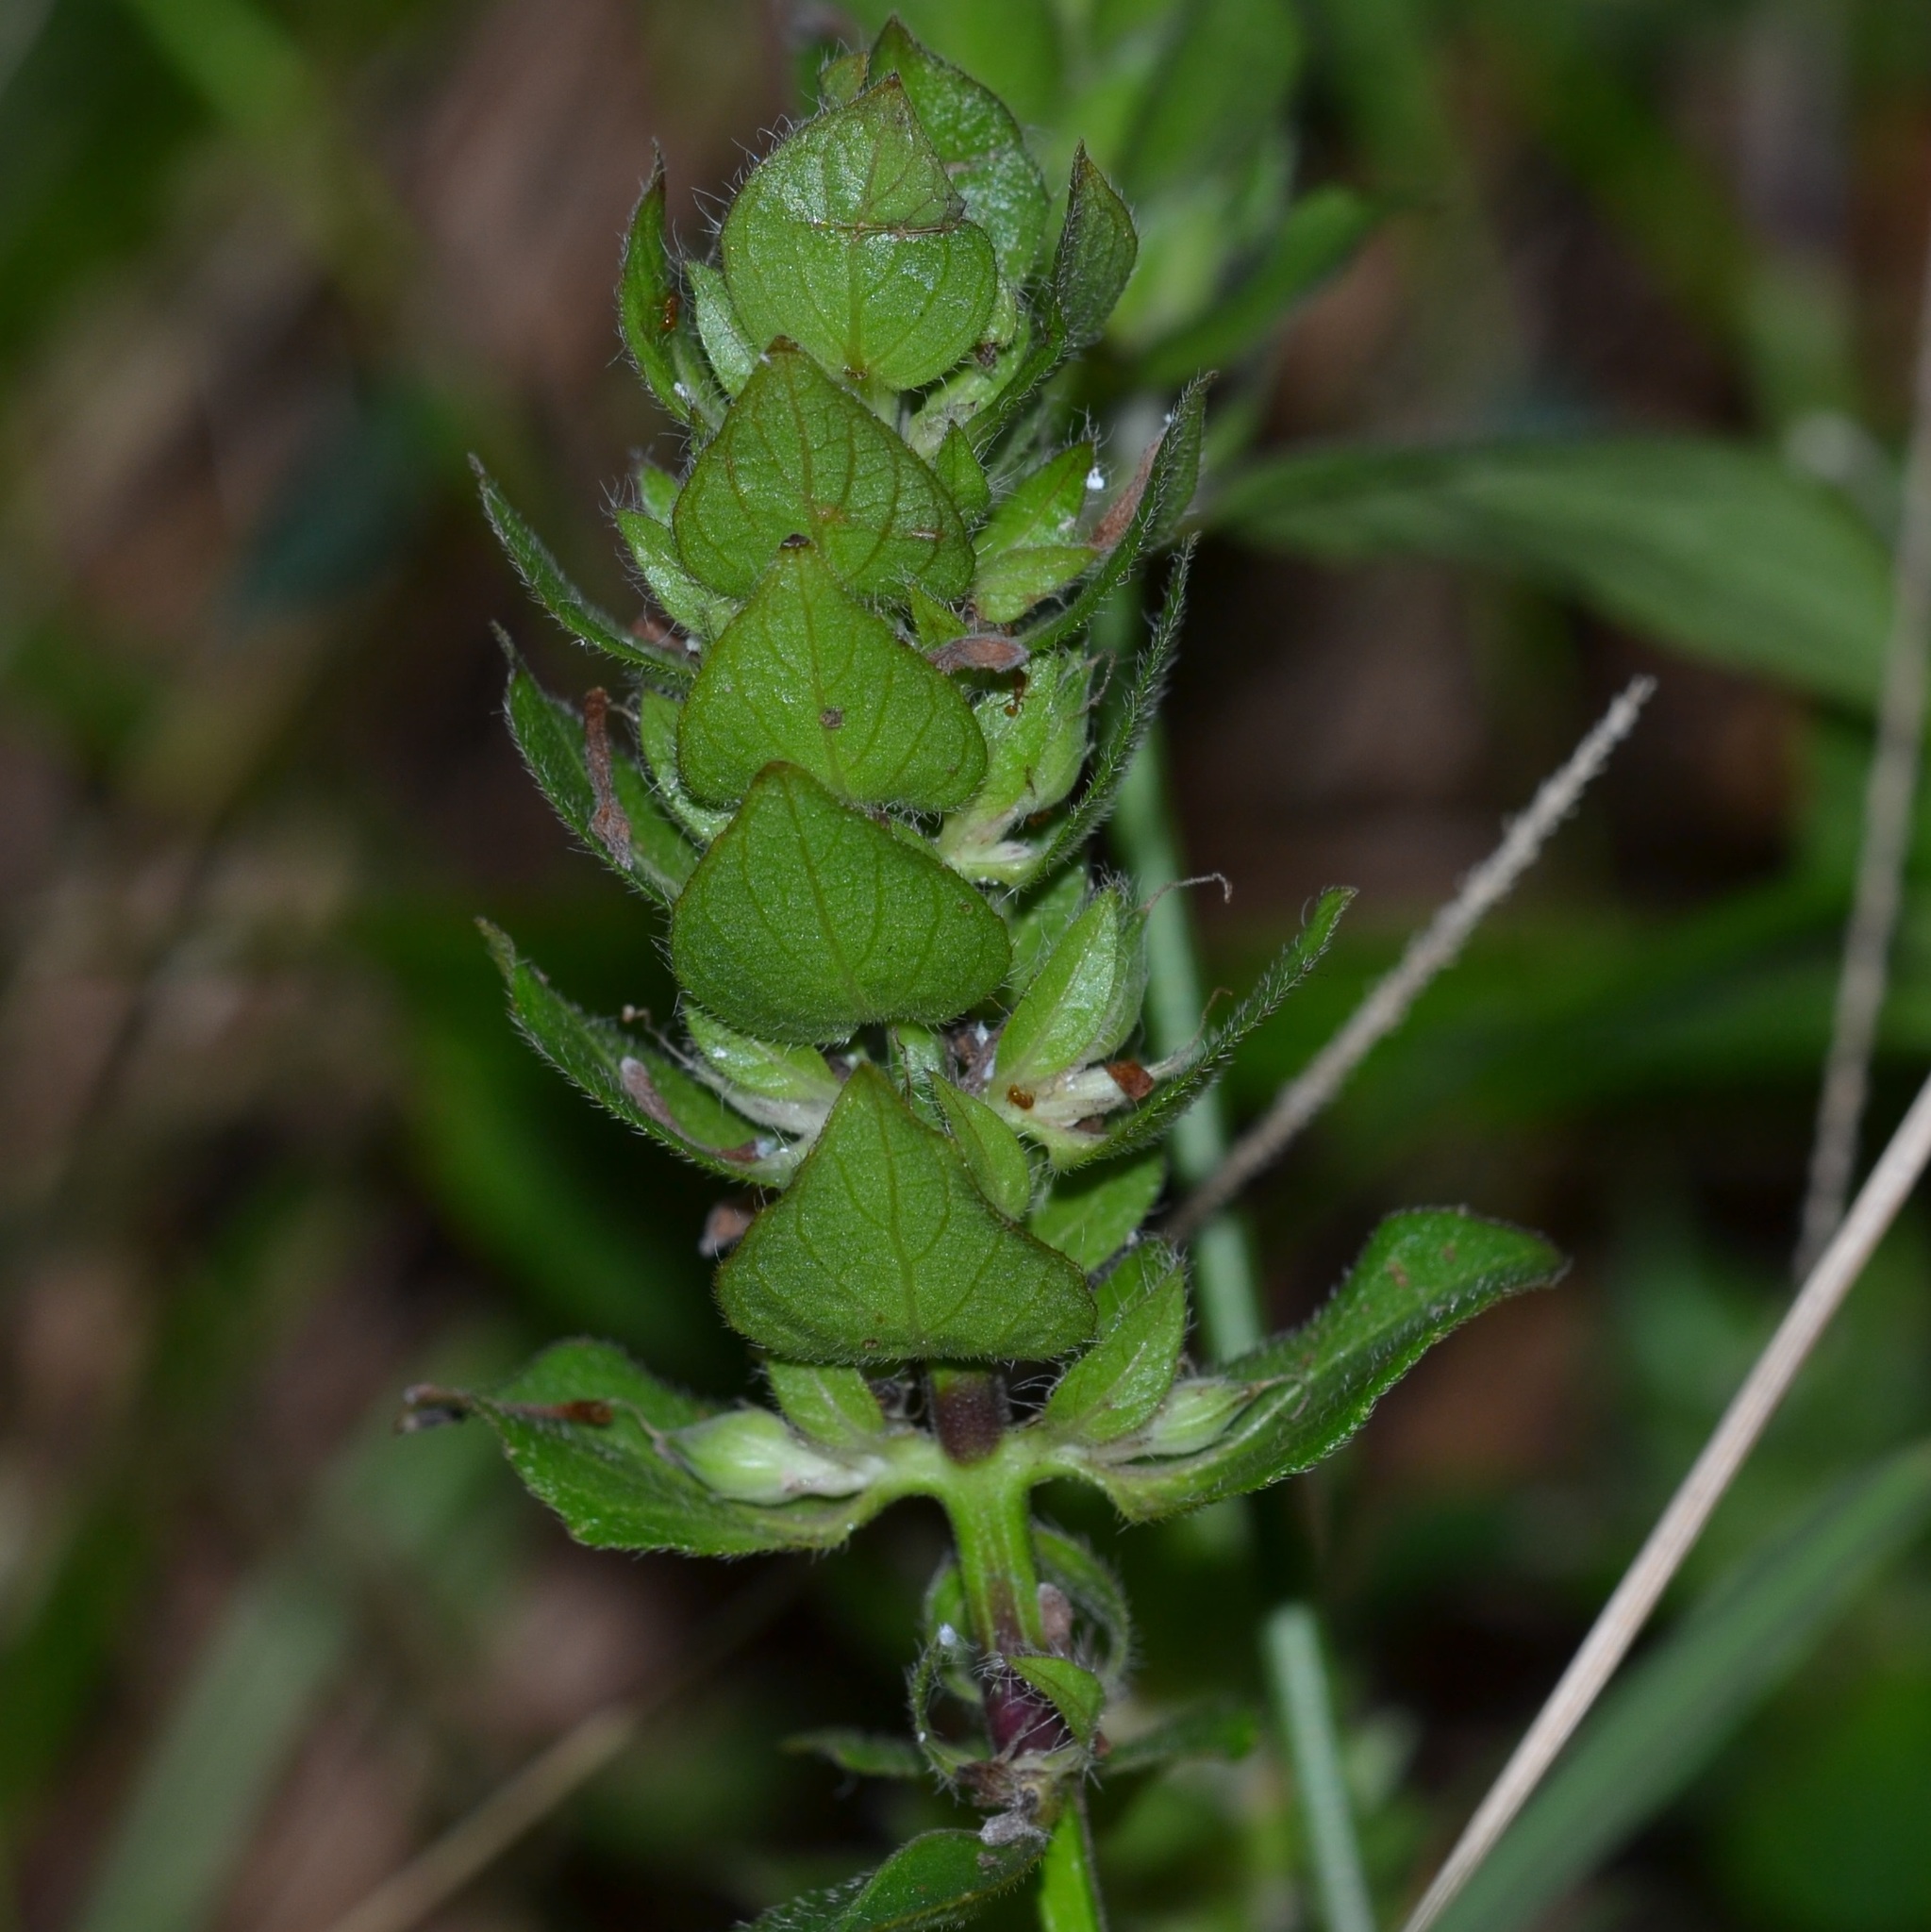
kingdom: Plantae
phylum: Tracheophyta
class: Magnoliopsida
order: Lamiales
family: Acanthaceae
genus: Ruellia
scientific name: Ruellia blechum
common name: Browne's blechum
